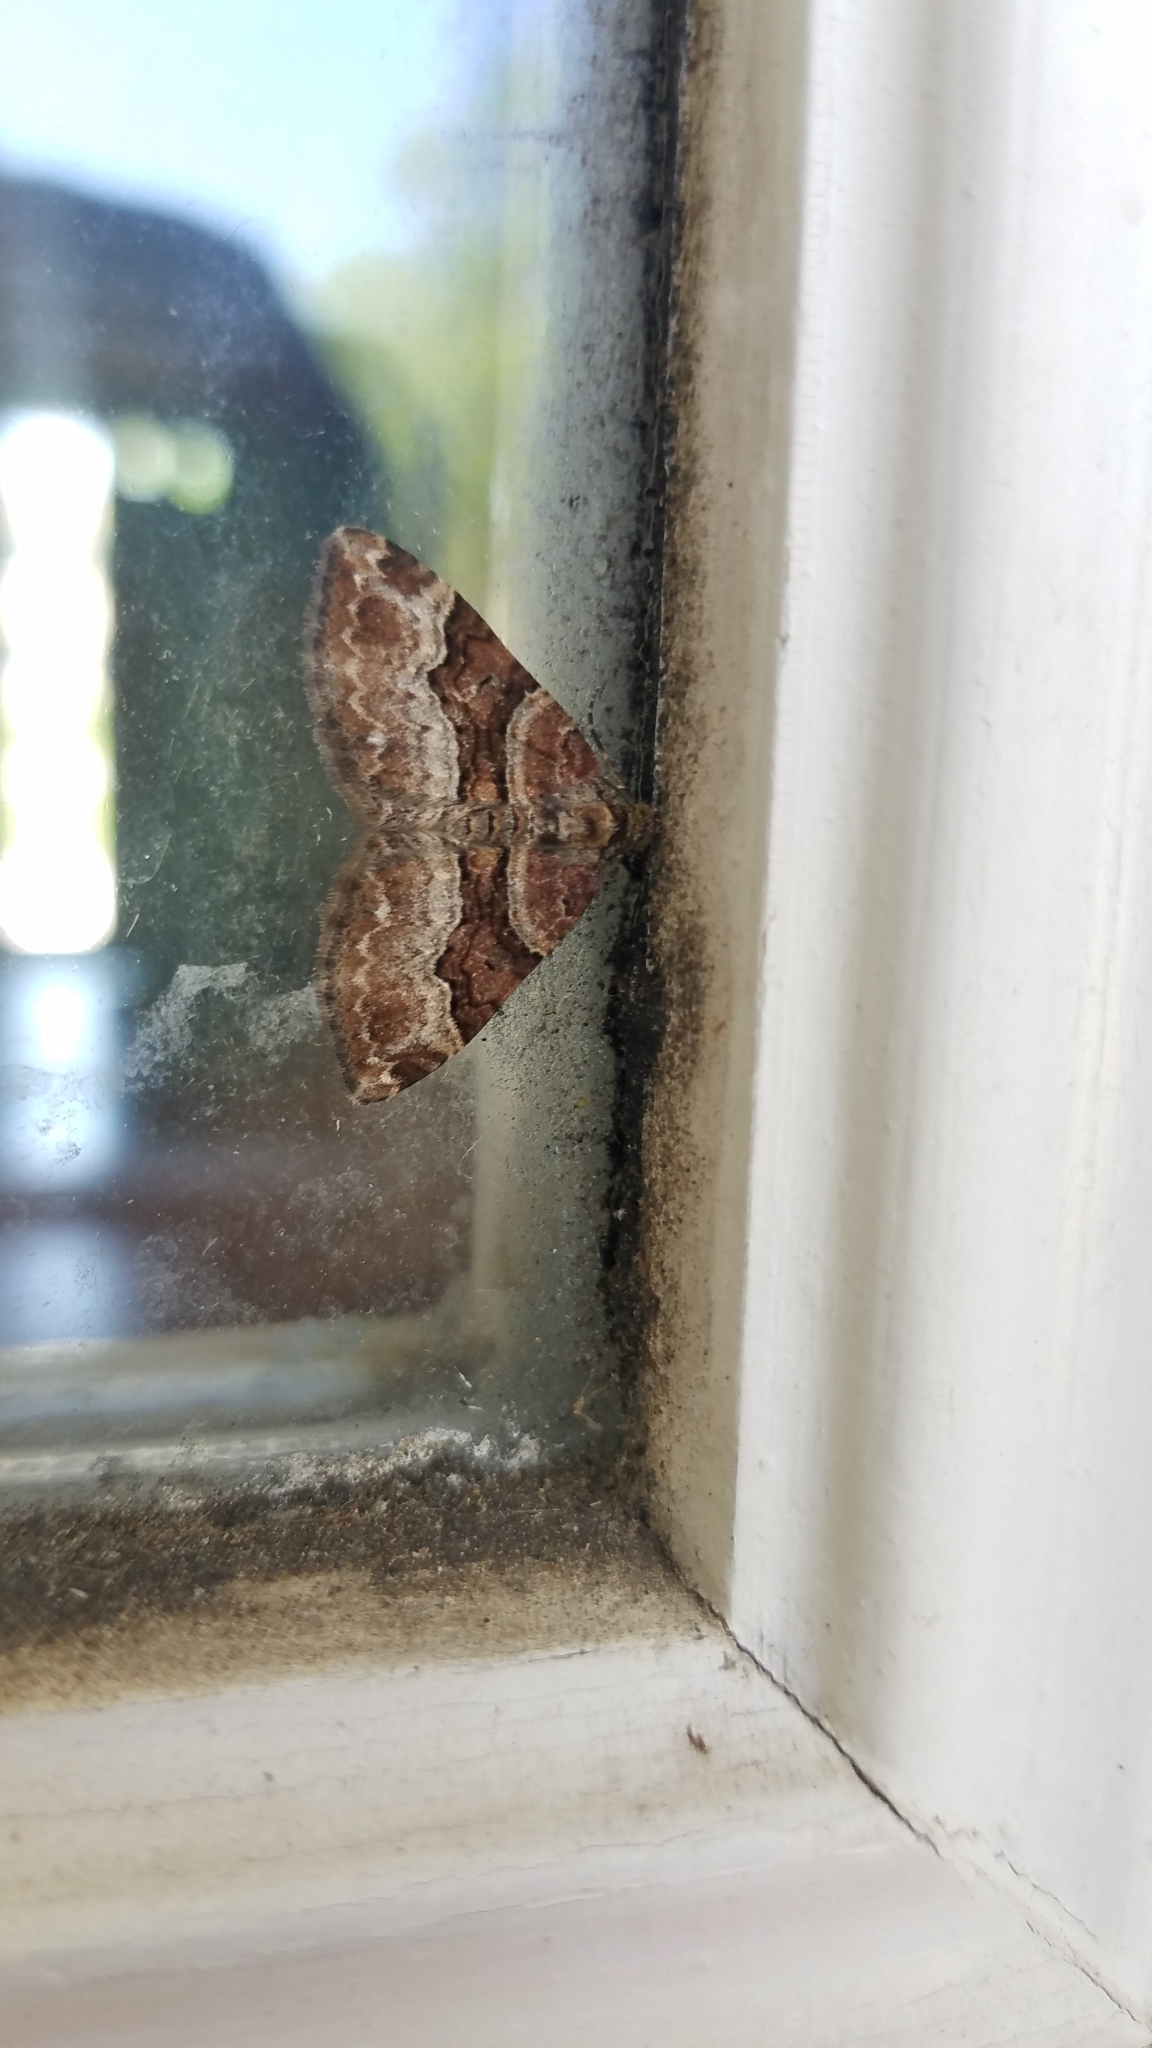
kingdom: Animalia
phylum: Arthropoda
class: Insecta
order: Lepidoptera
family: Geometridae
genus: Xanthorhoe
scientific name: Xanthorhoe lacustrata
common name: Toothed brown carpet
